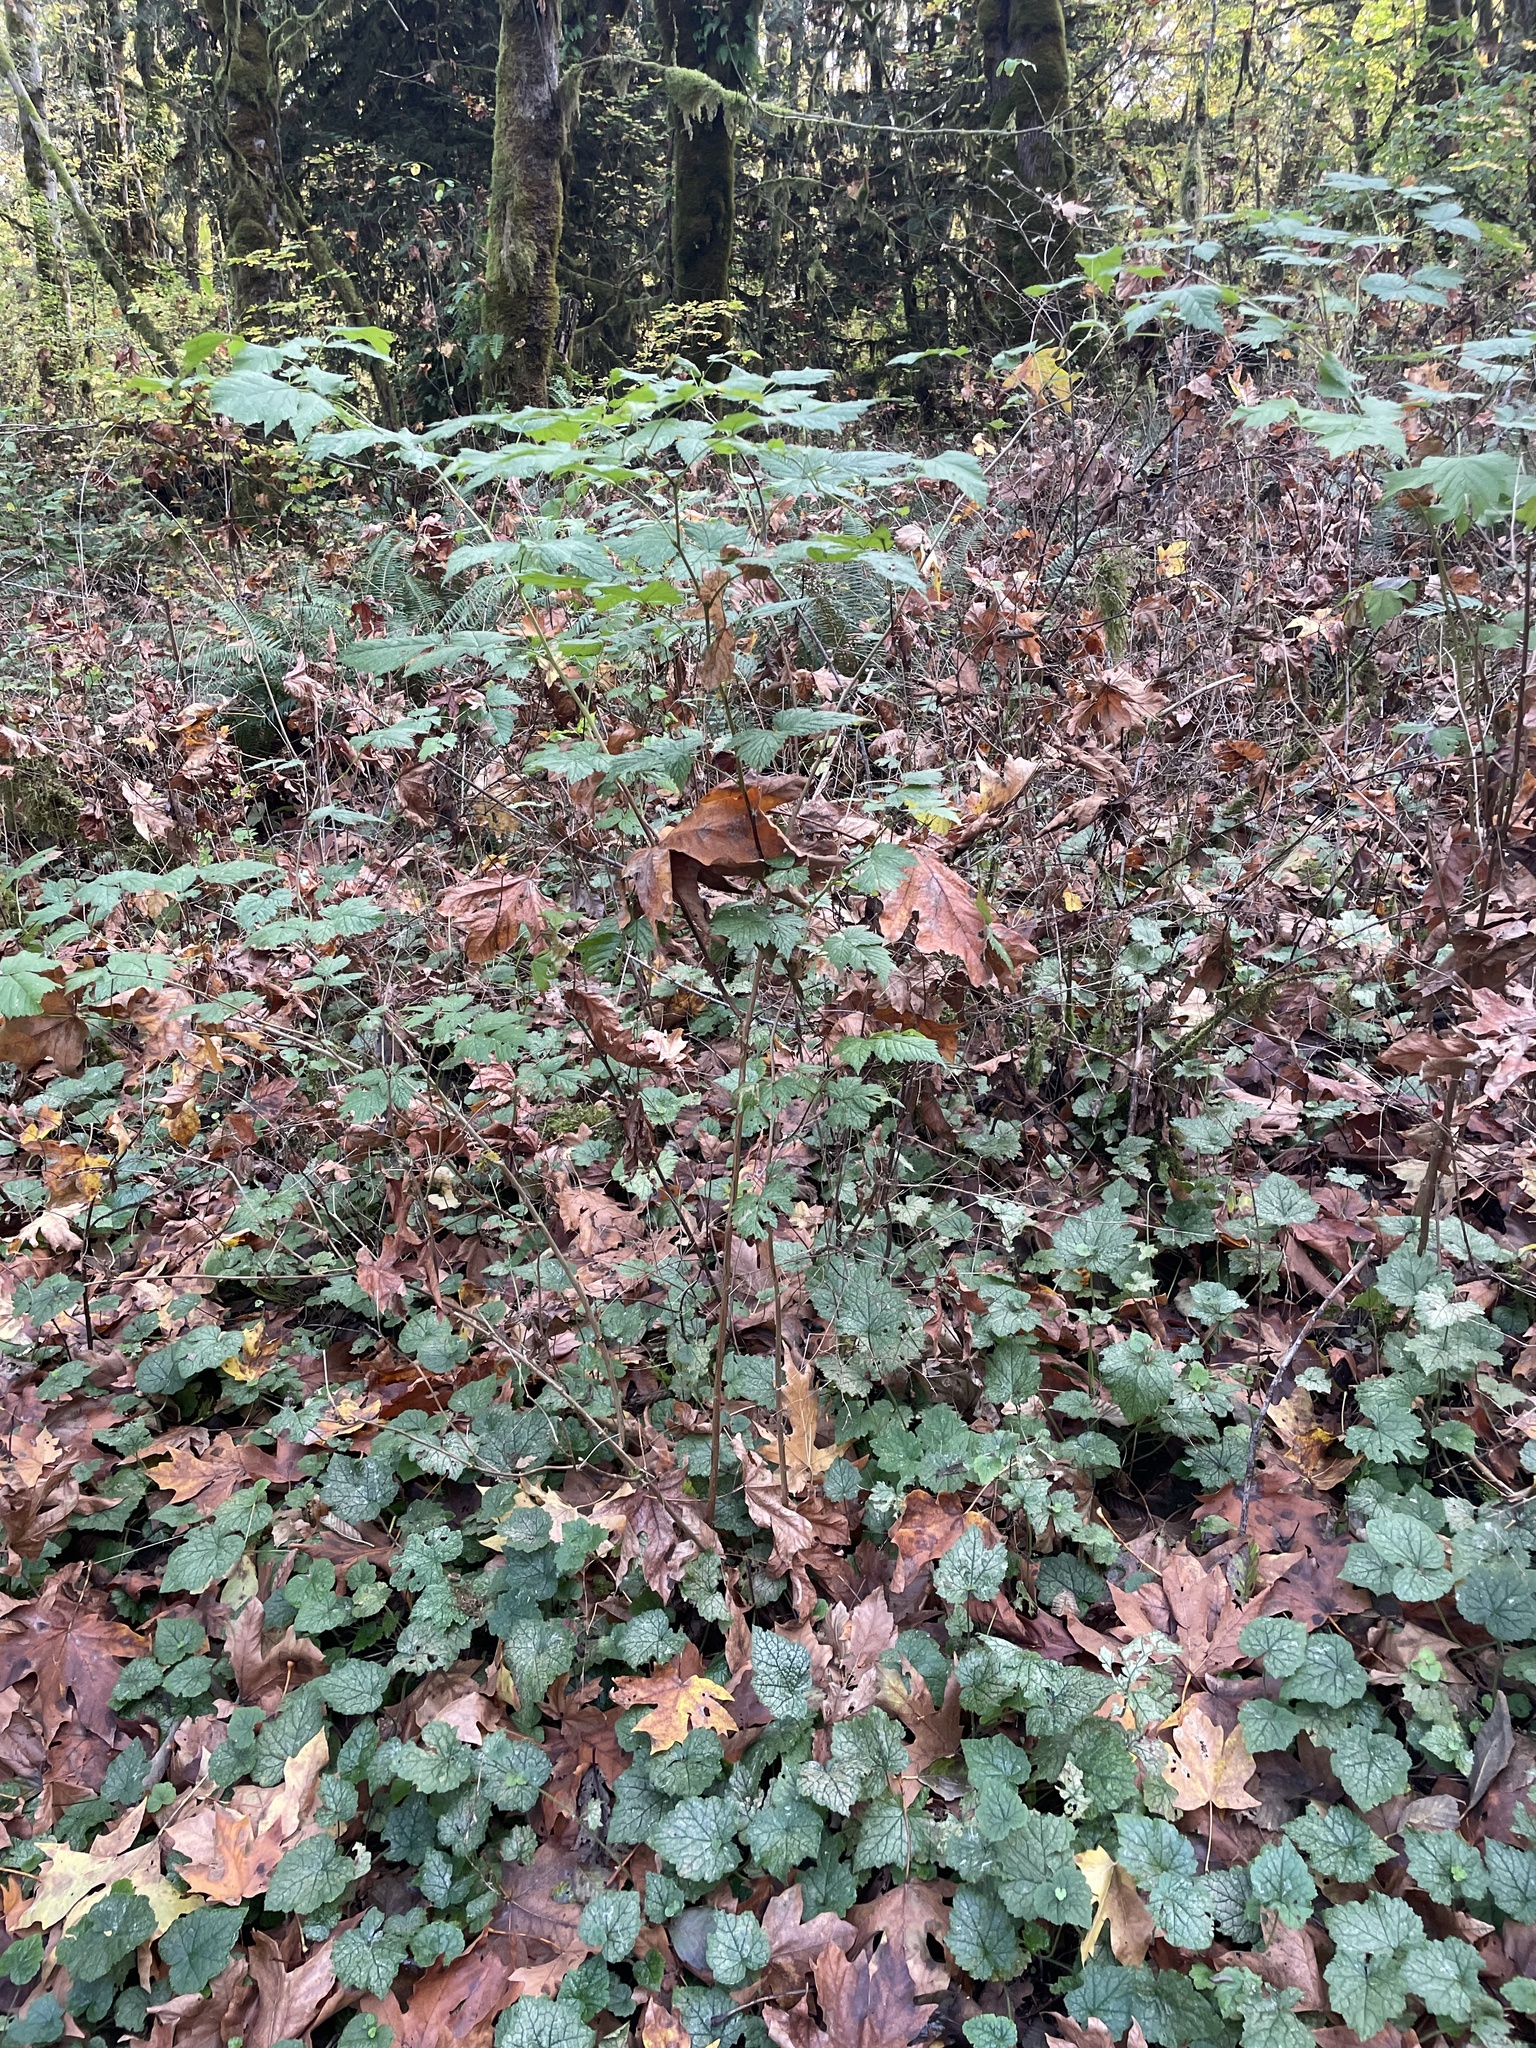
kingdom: Plantae
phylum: Tracheophyta
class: Magnoliopsida
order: Rosales
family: Rosaceae
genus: Rubus
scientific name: Rubus spectabilis
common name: Salmonberry
